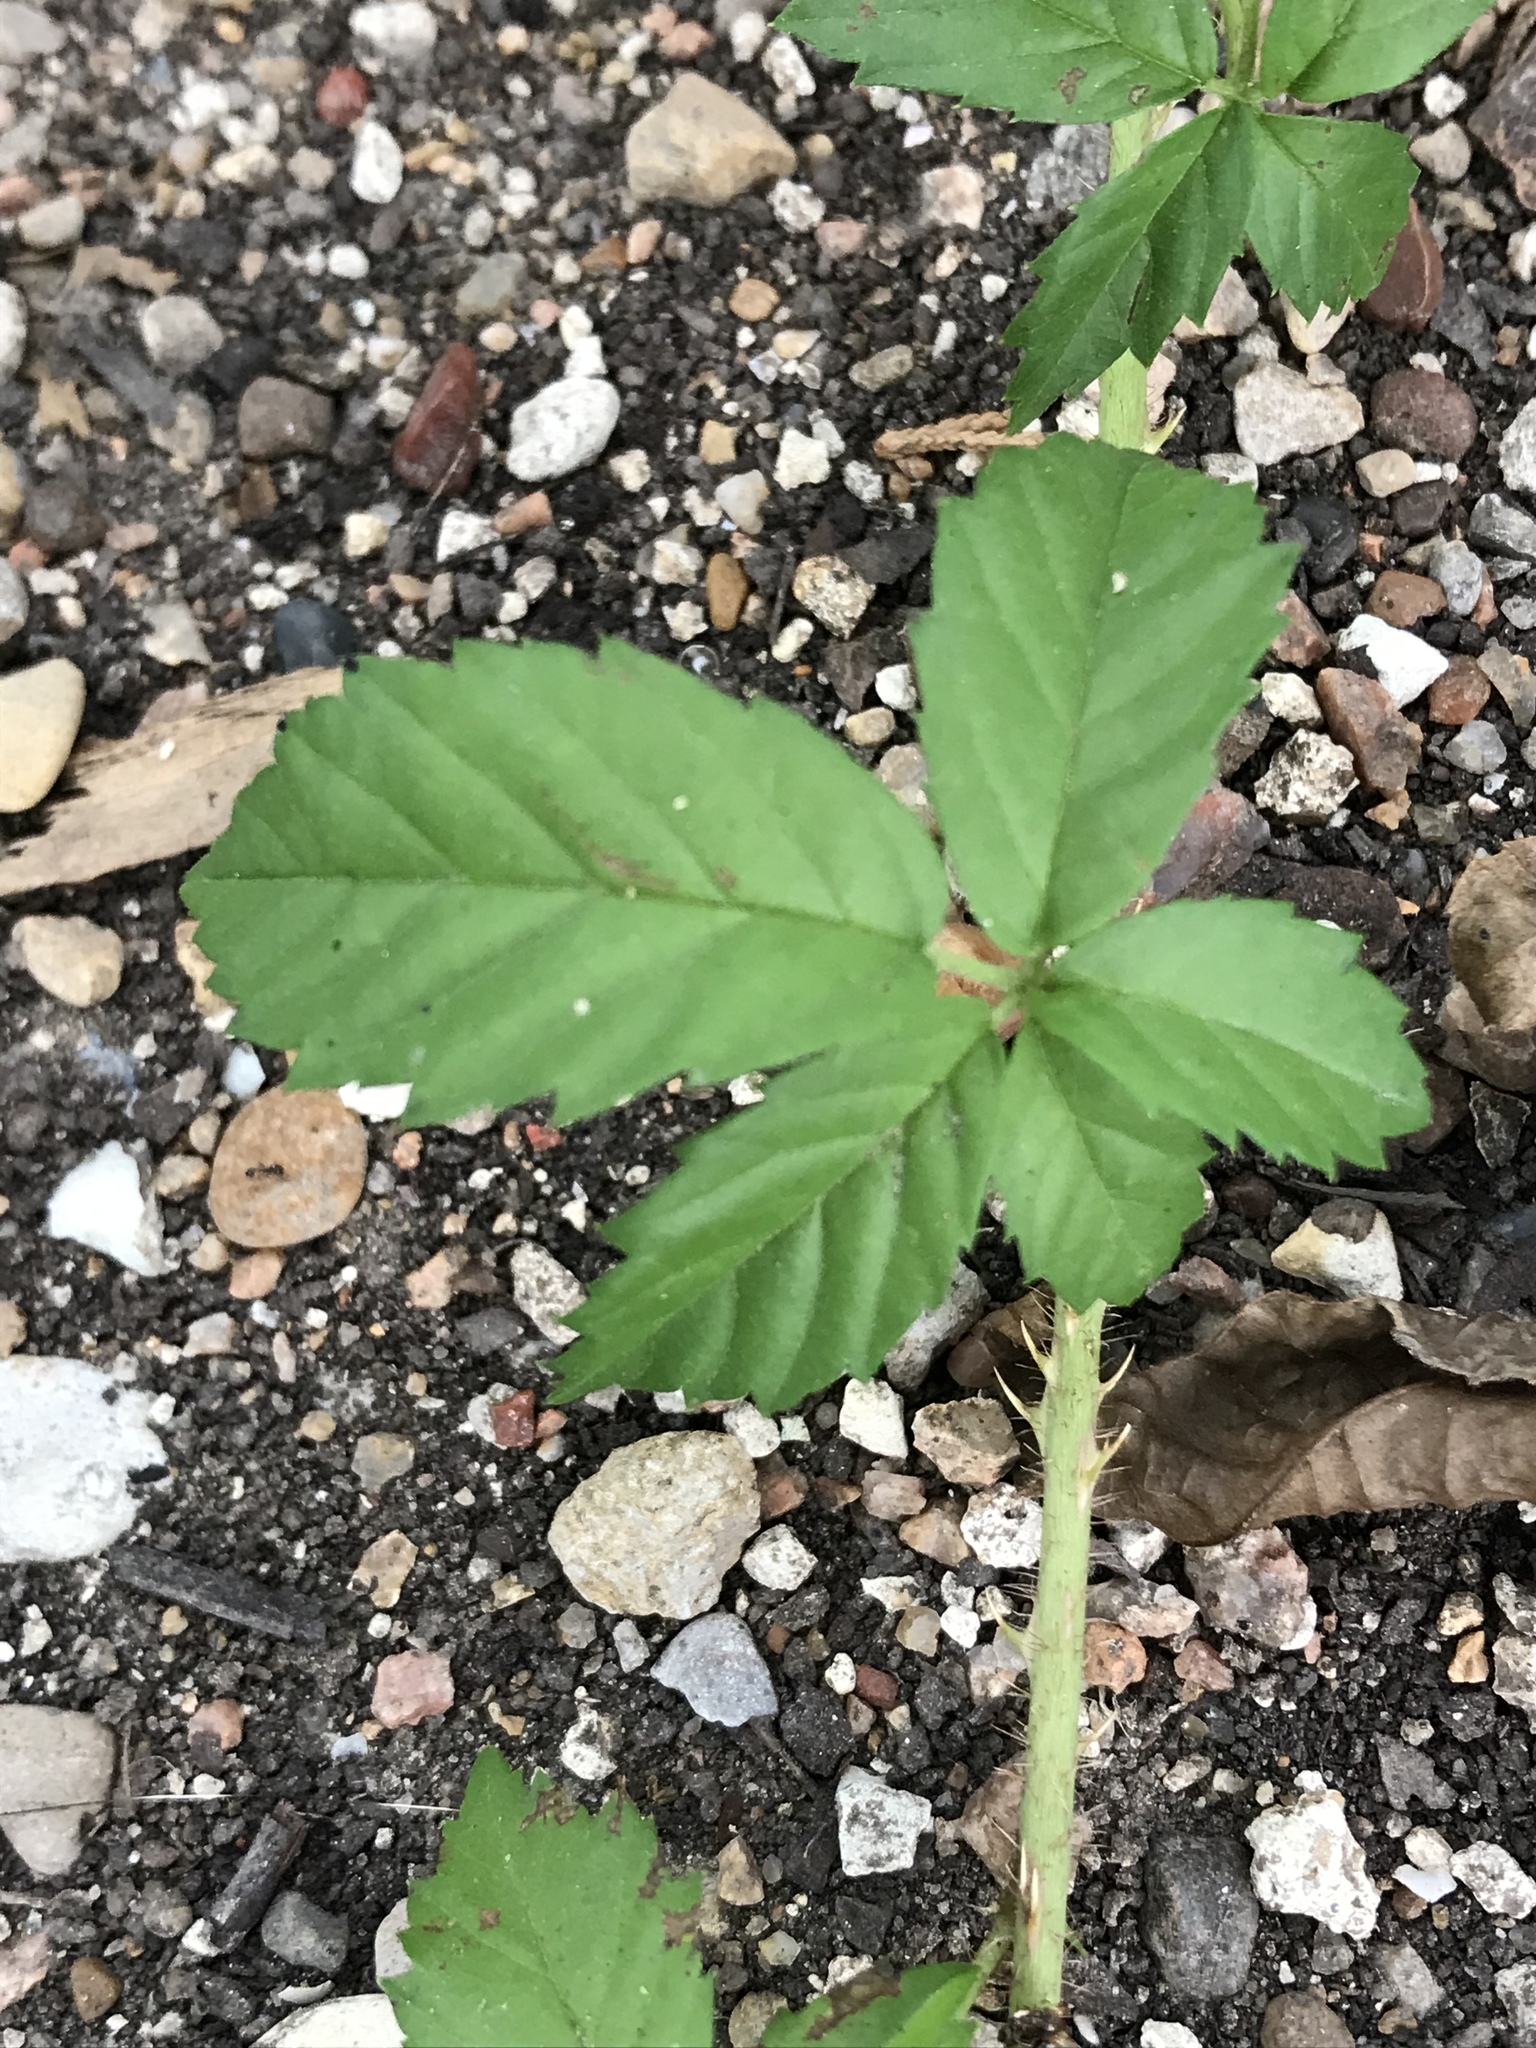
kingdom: Plantae
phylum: Tracheophyta
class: Magnoliopsida
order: Rosales
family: Rosaceae
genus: Rubus
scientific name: Rubus trivialis
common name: Southern dewberry
